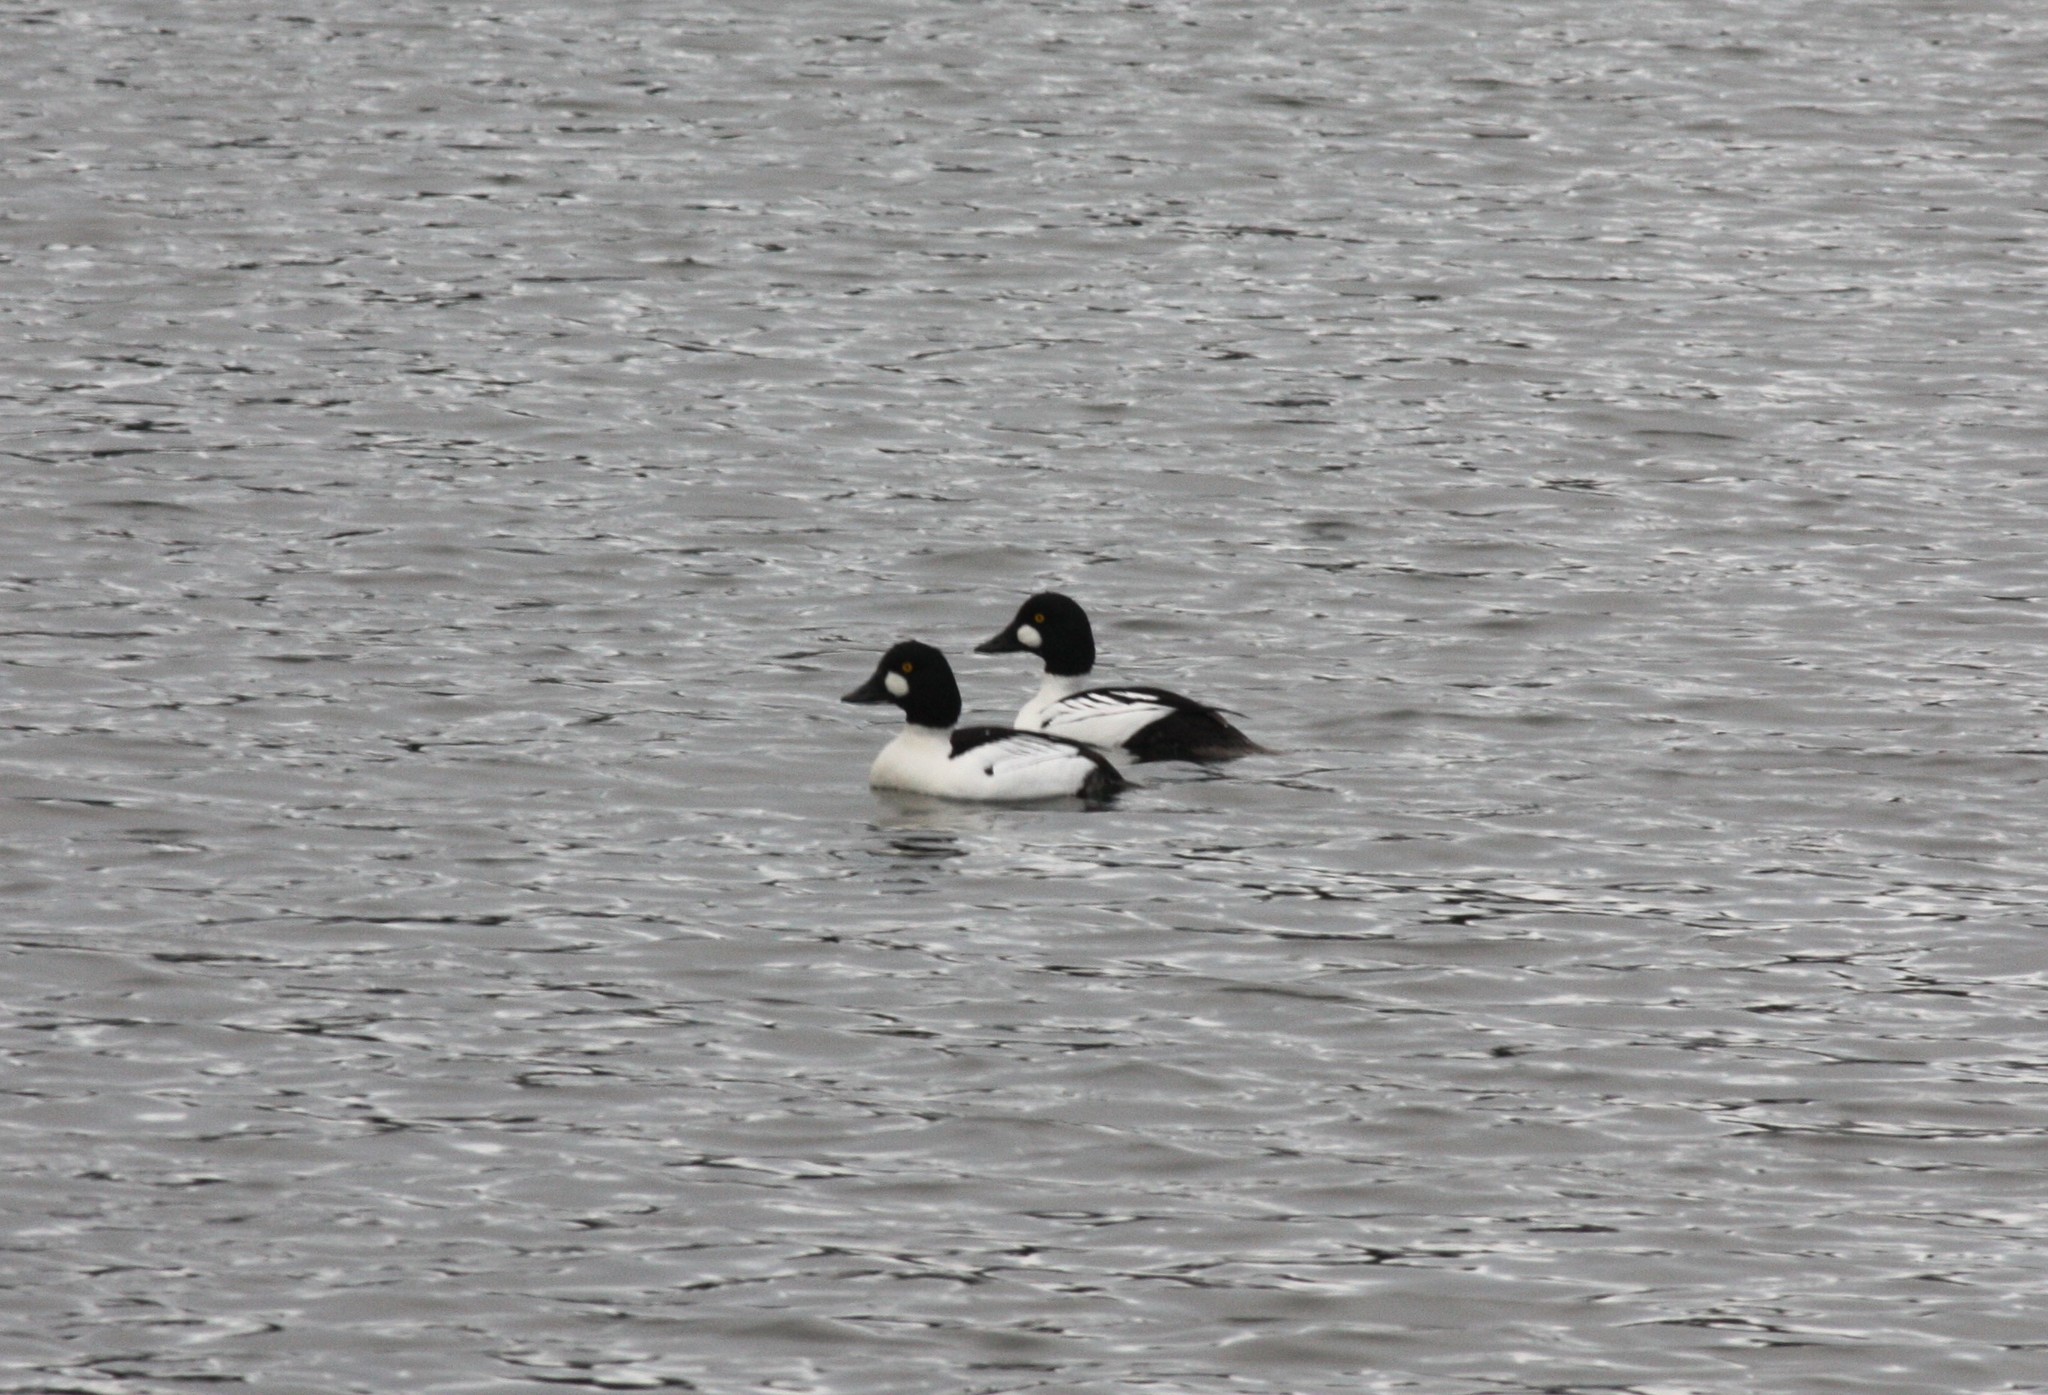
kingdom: Animalia
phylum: Chordata
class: Aves
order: Anseriformes
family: Anatidae
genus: Bucephala
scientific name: Bucephala clangula
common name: Common goldeneye
